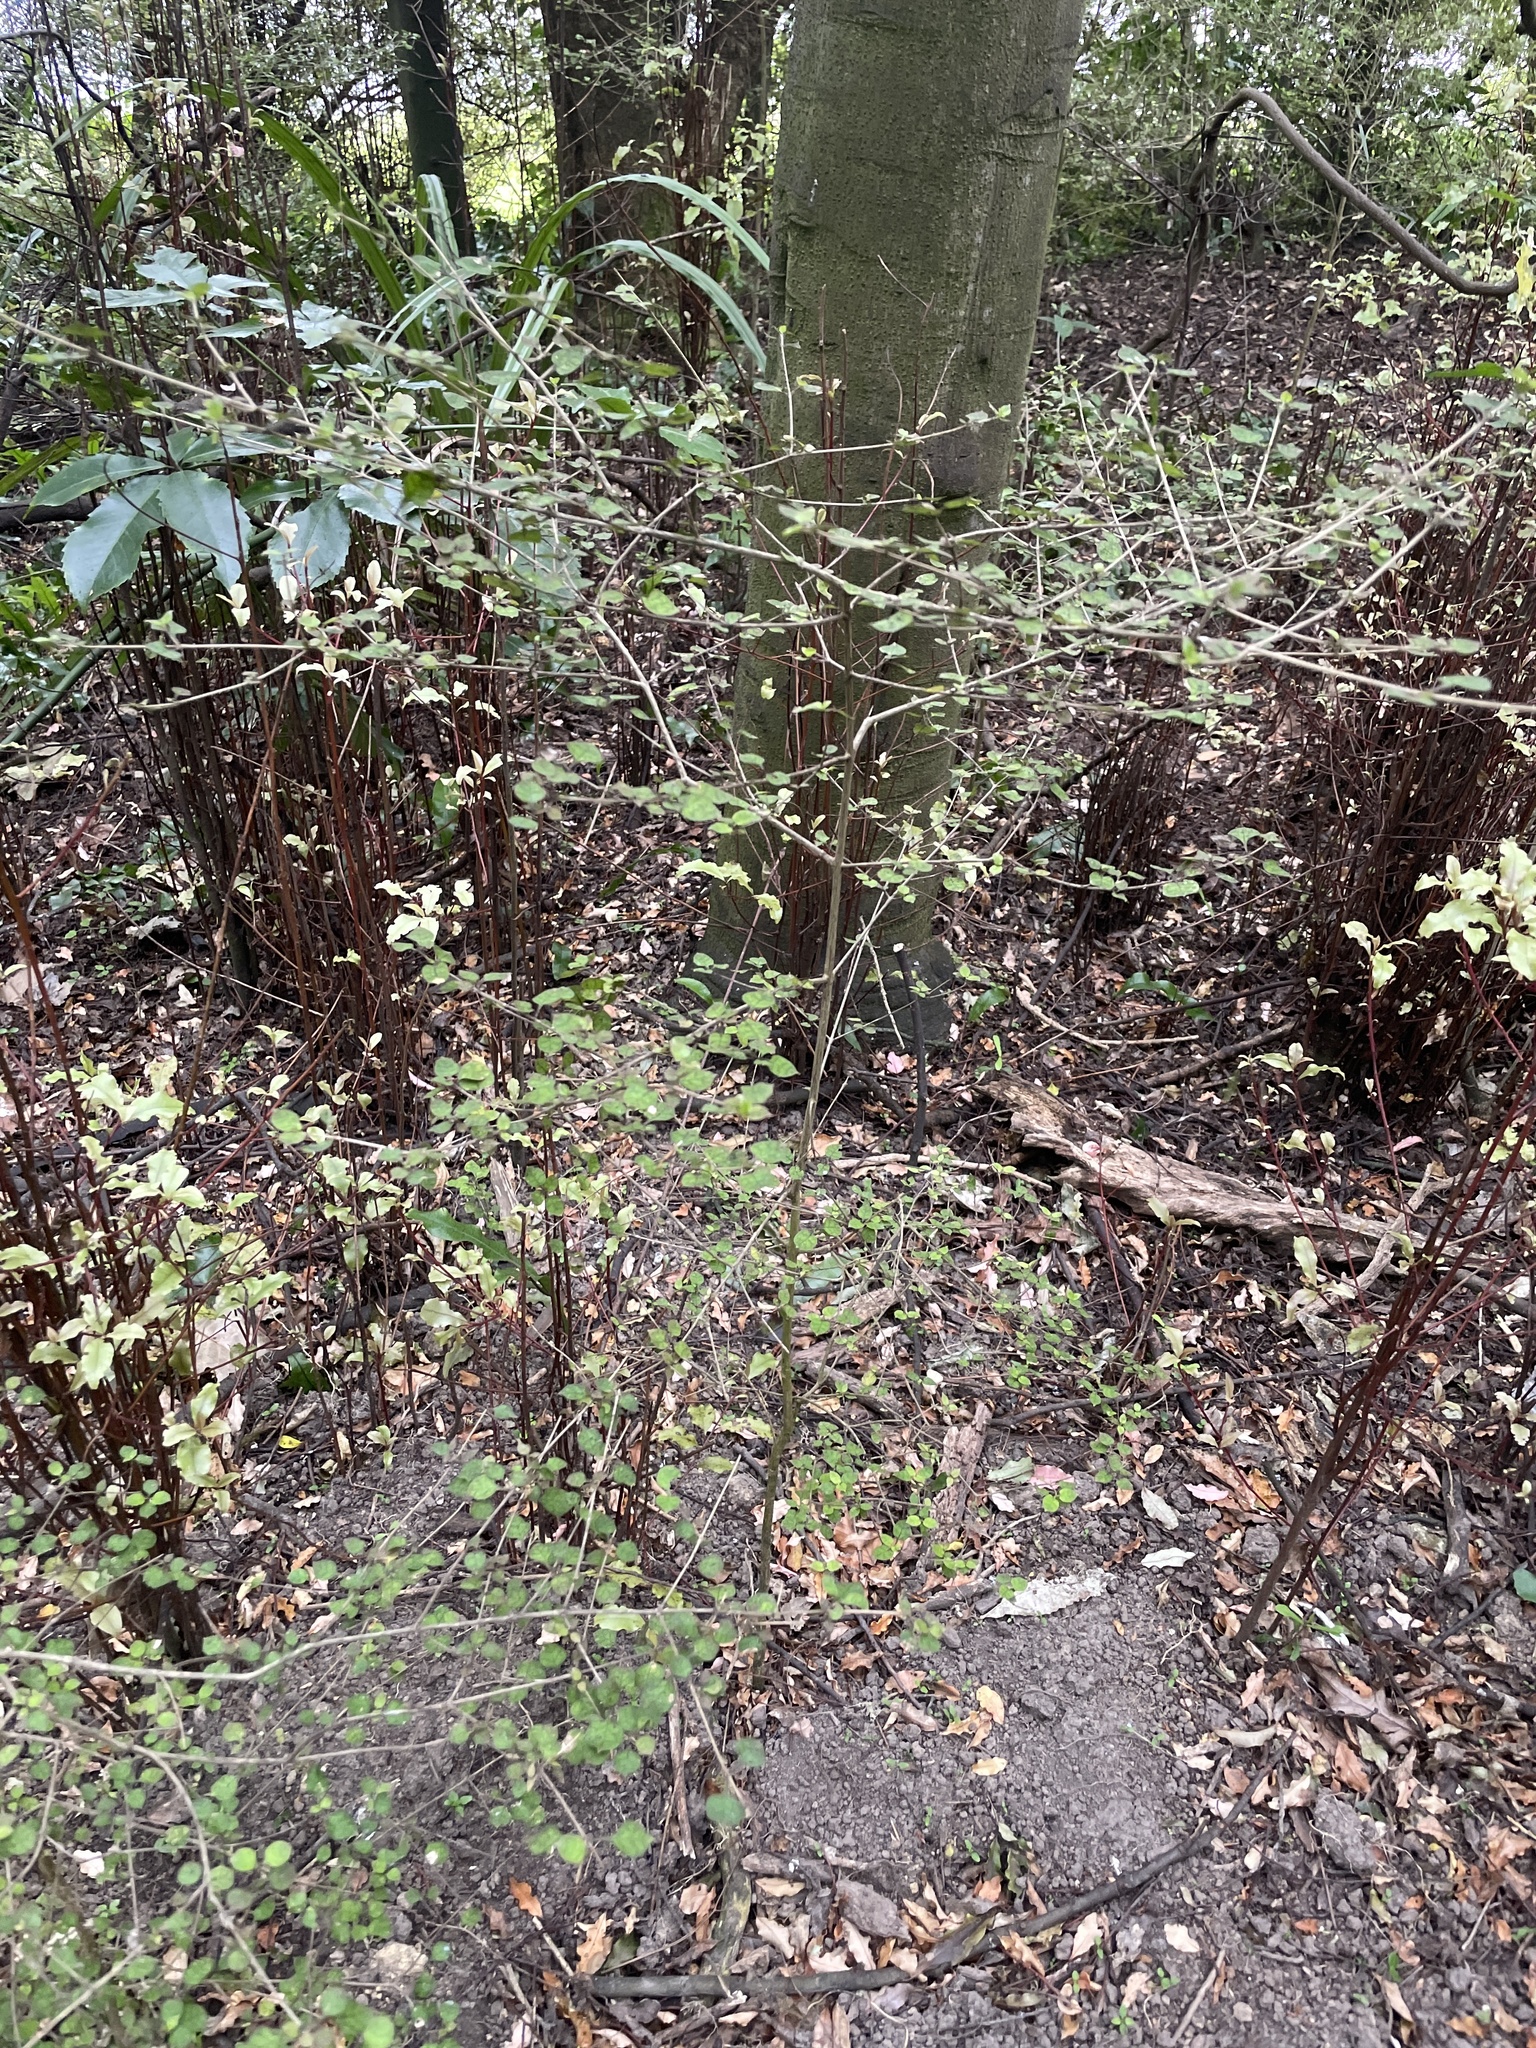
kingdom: Plantae
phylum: Tracheophyta
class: Magnoliopsida
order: Gentianales
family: Rubiaceae
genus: Coprosma
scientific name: Coprosma areolata
